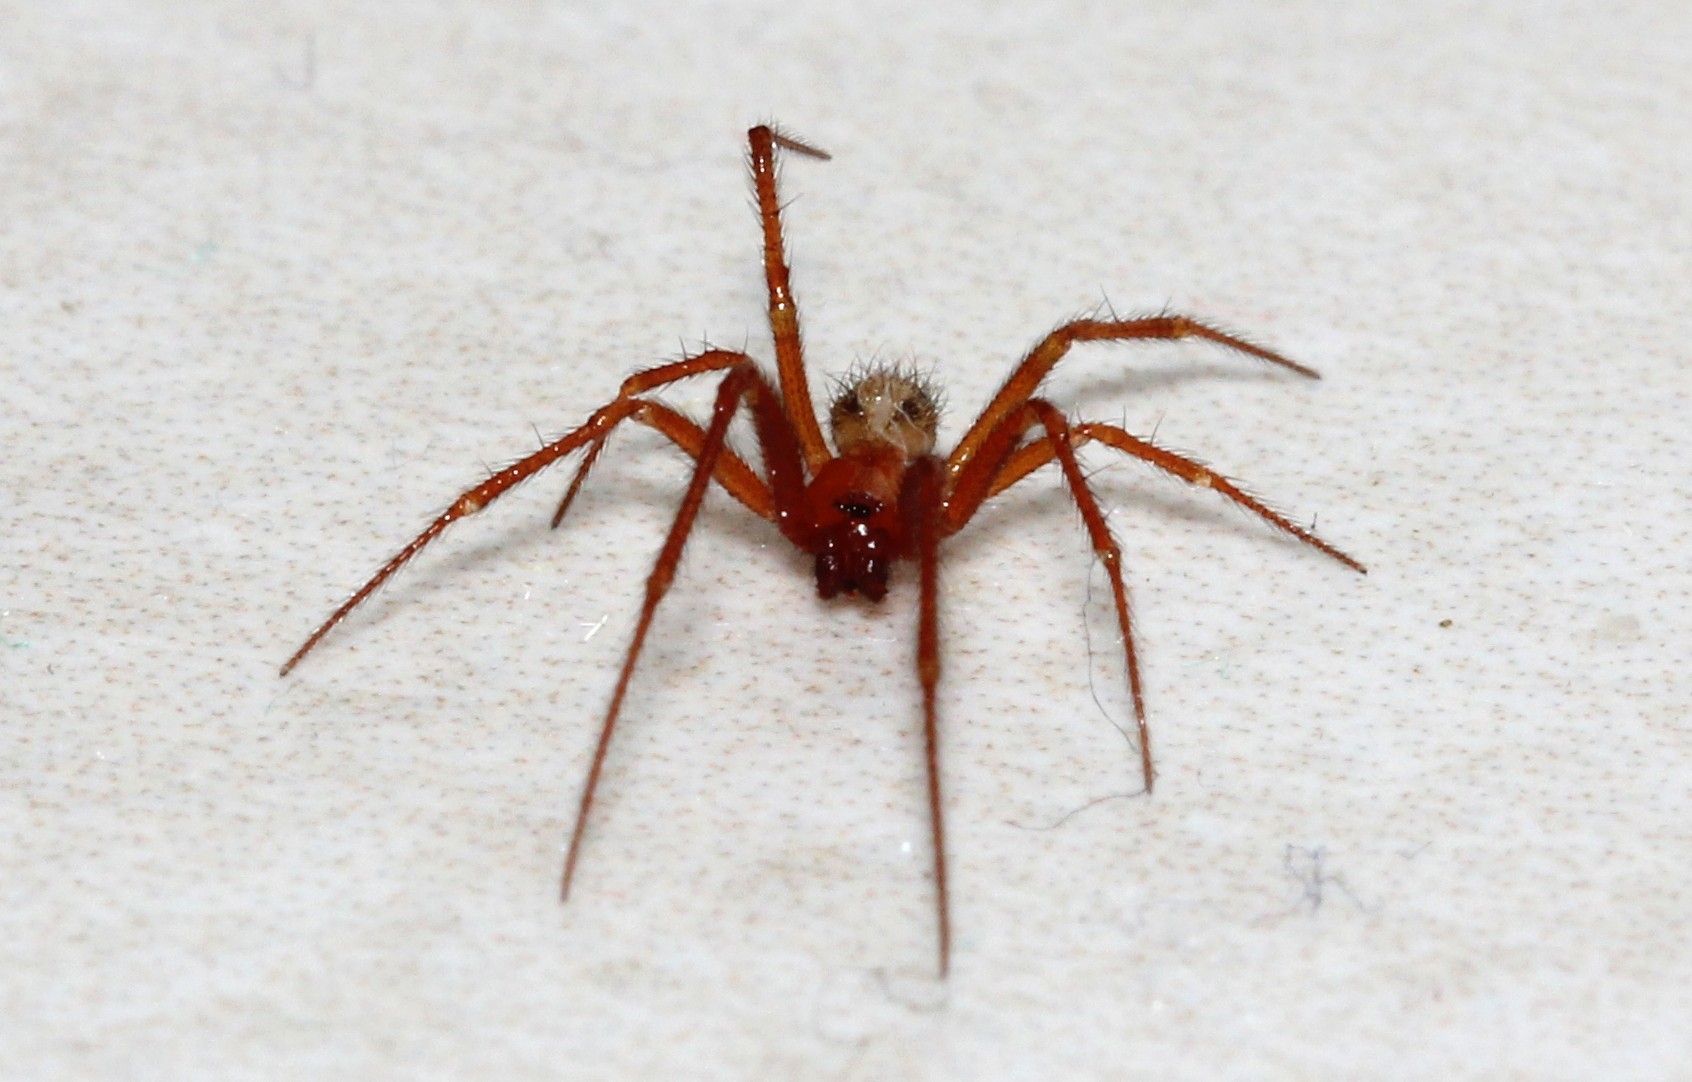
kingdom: Animalia
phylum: Arthropoda
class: Arachnida
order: Araneae
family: Theridiidae
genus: Nesticodes
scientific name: Nesticodes rufipes
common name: Cobweb spiders
